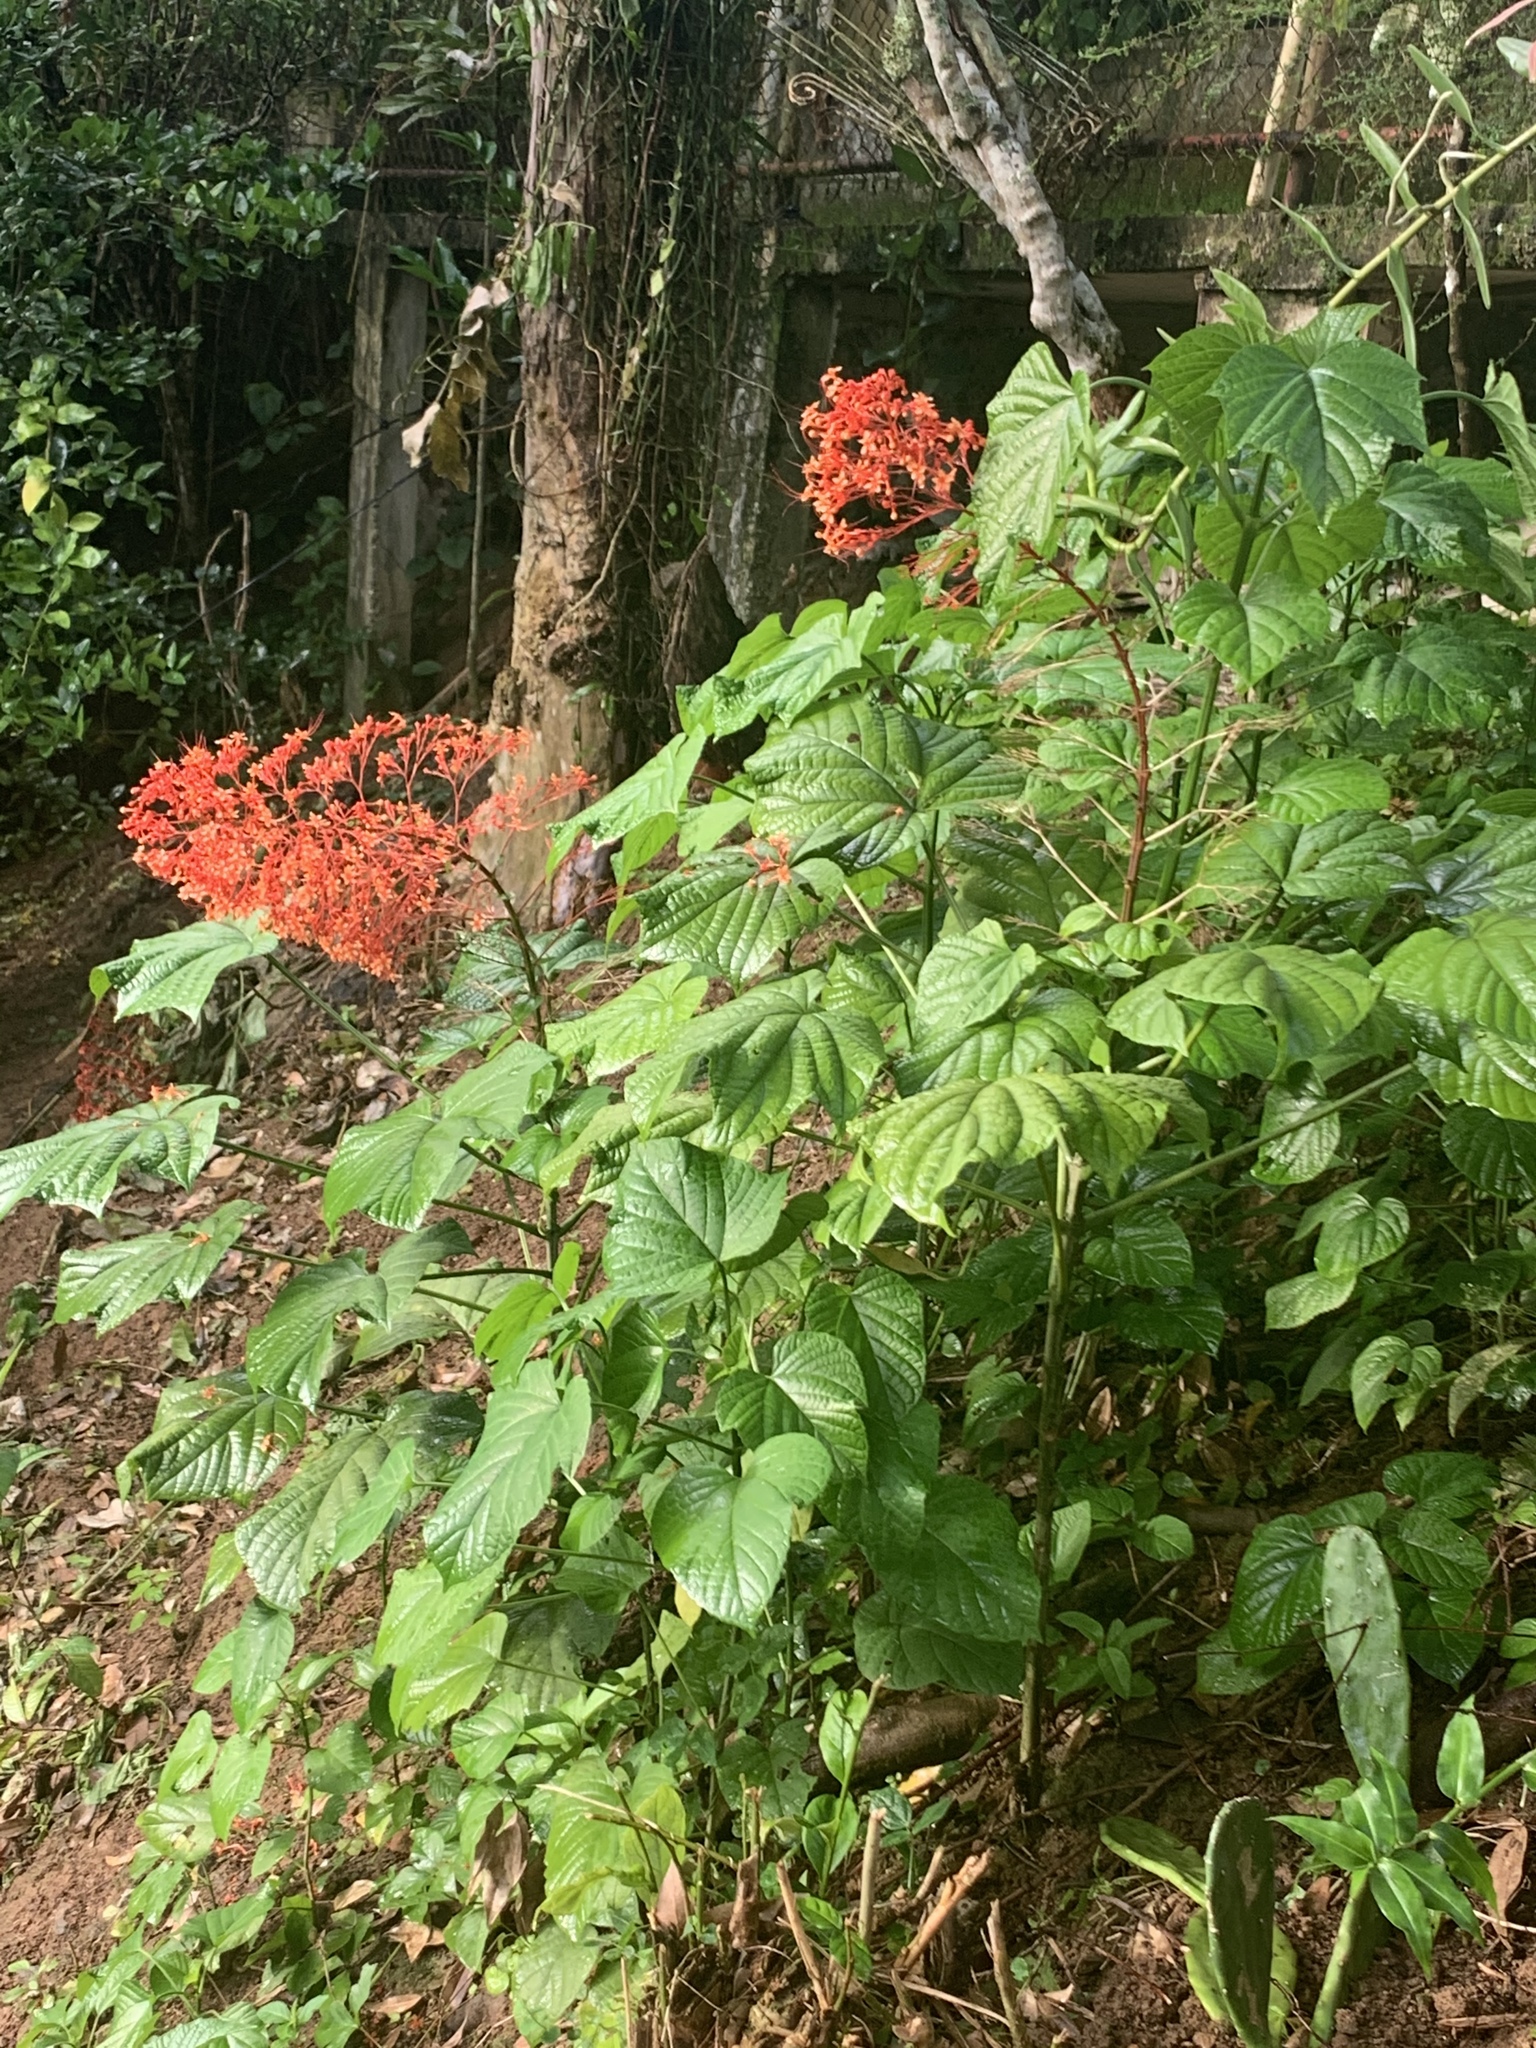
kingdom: Plantae
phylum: Tracheophyta
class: Magnoliopsida
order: Lamiales
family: Lamiaceae
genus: Clerodendrum
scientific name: Clerodendrum paniculatum
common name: Pagoda-flower
